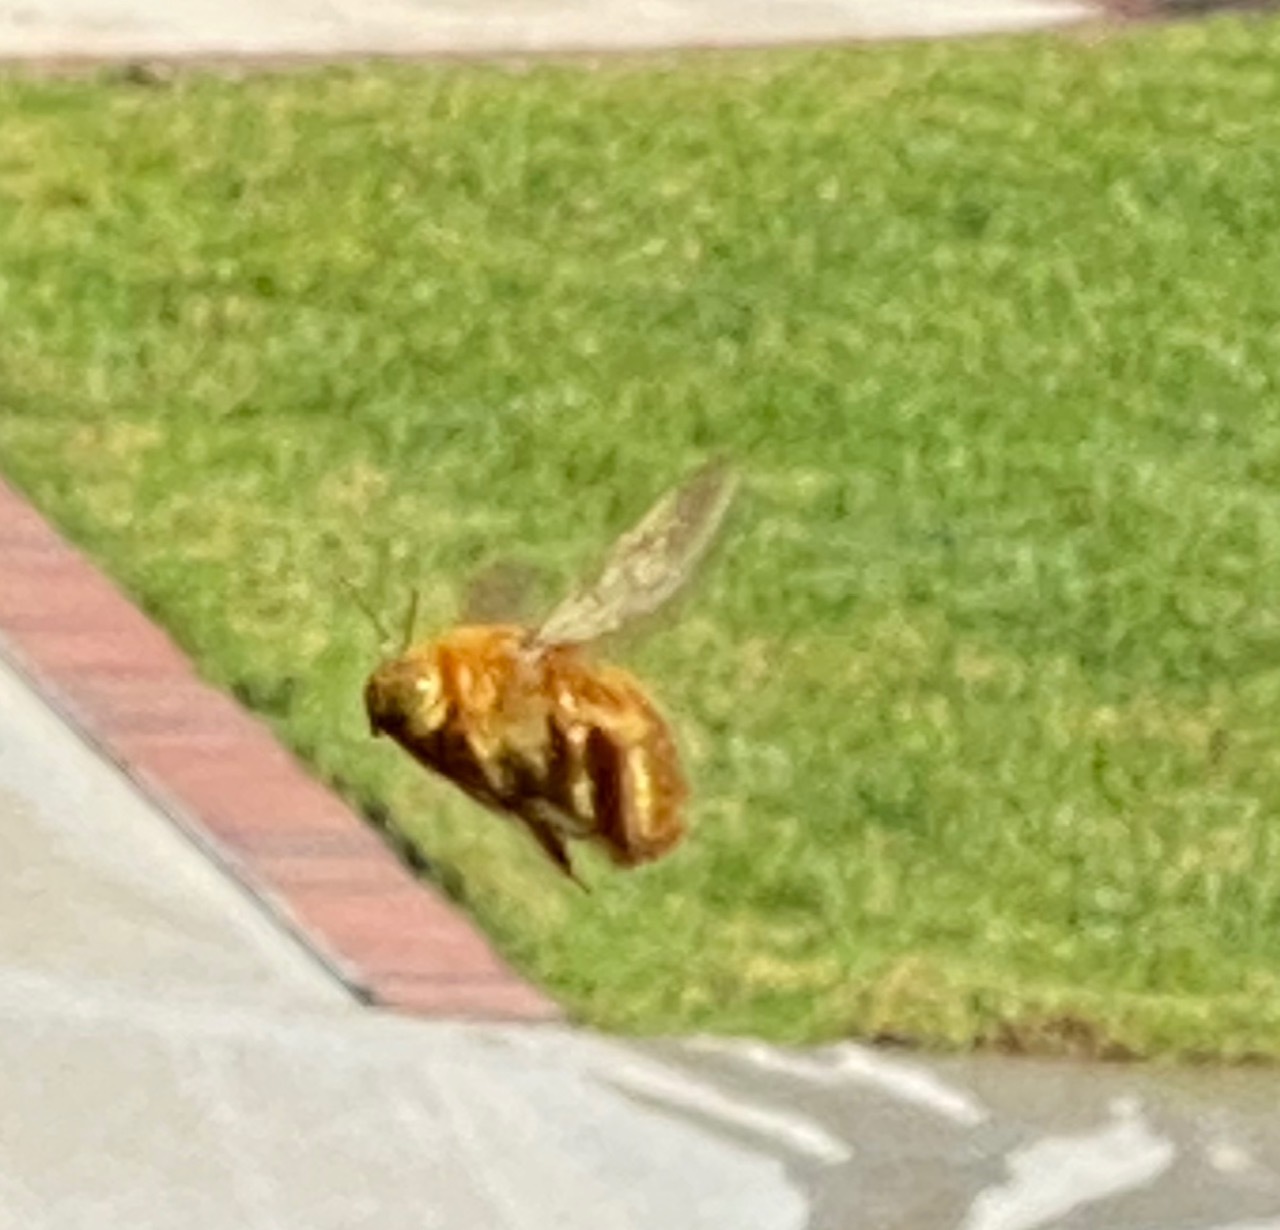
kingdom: Animalia
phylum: Arthropoda
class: Insecta
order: Hymenoptera
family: Apidae
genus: Xylocopa
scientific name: Xylocopa sonorina
